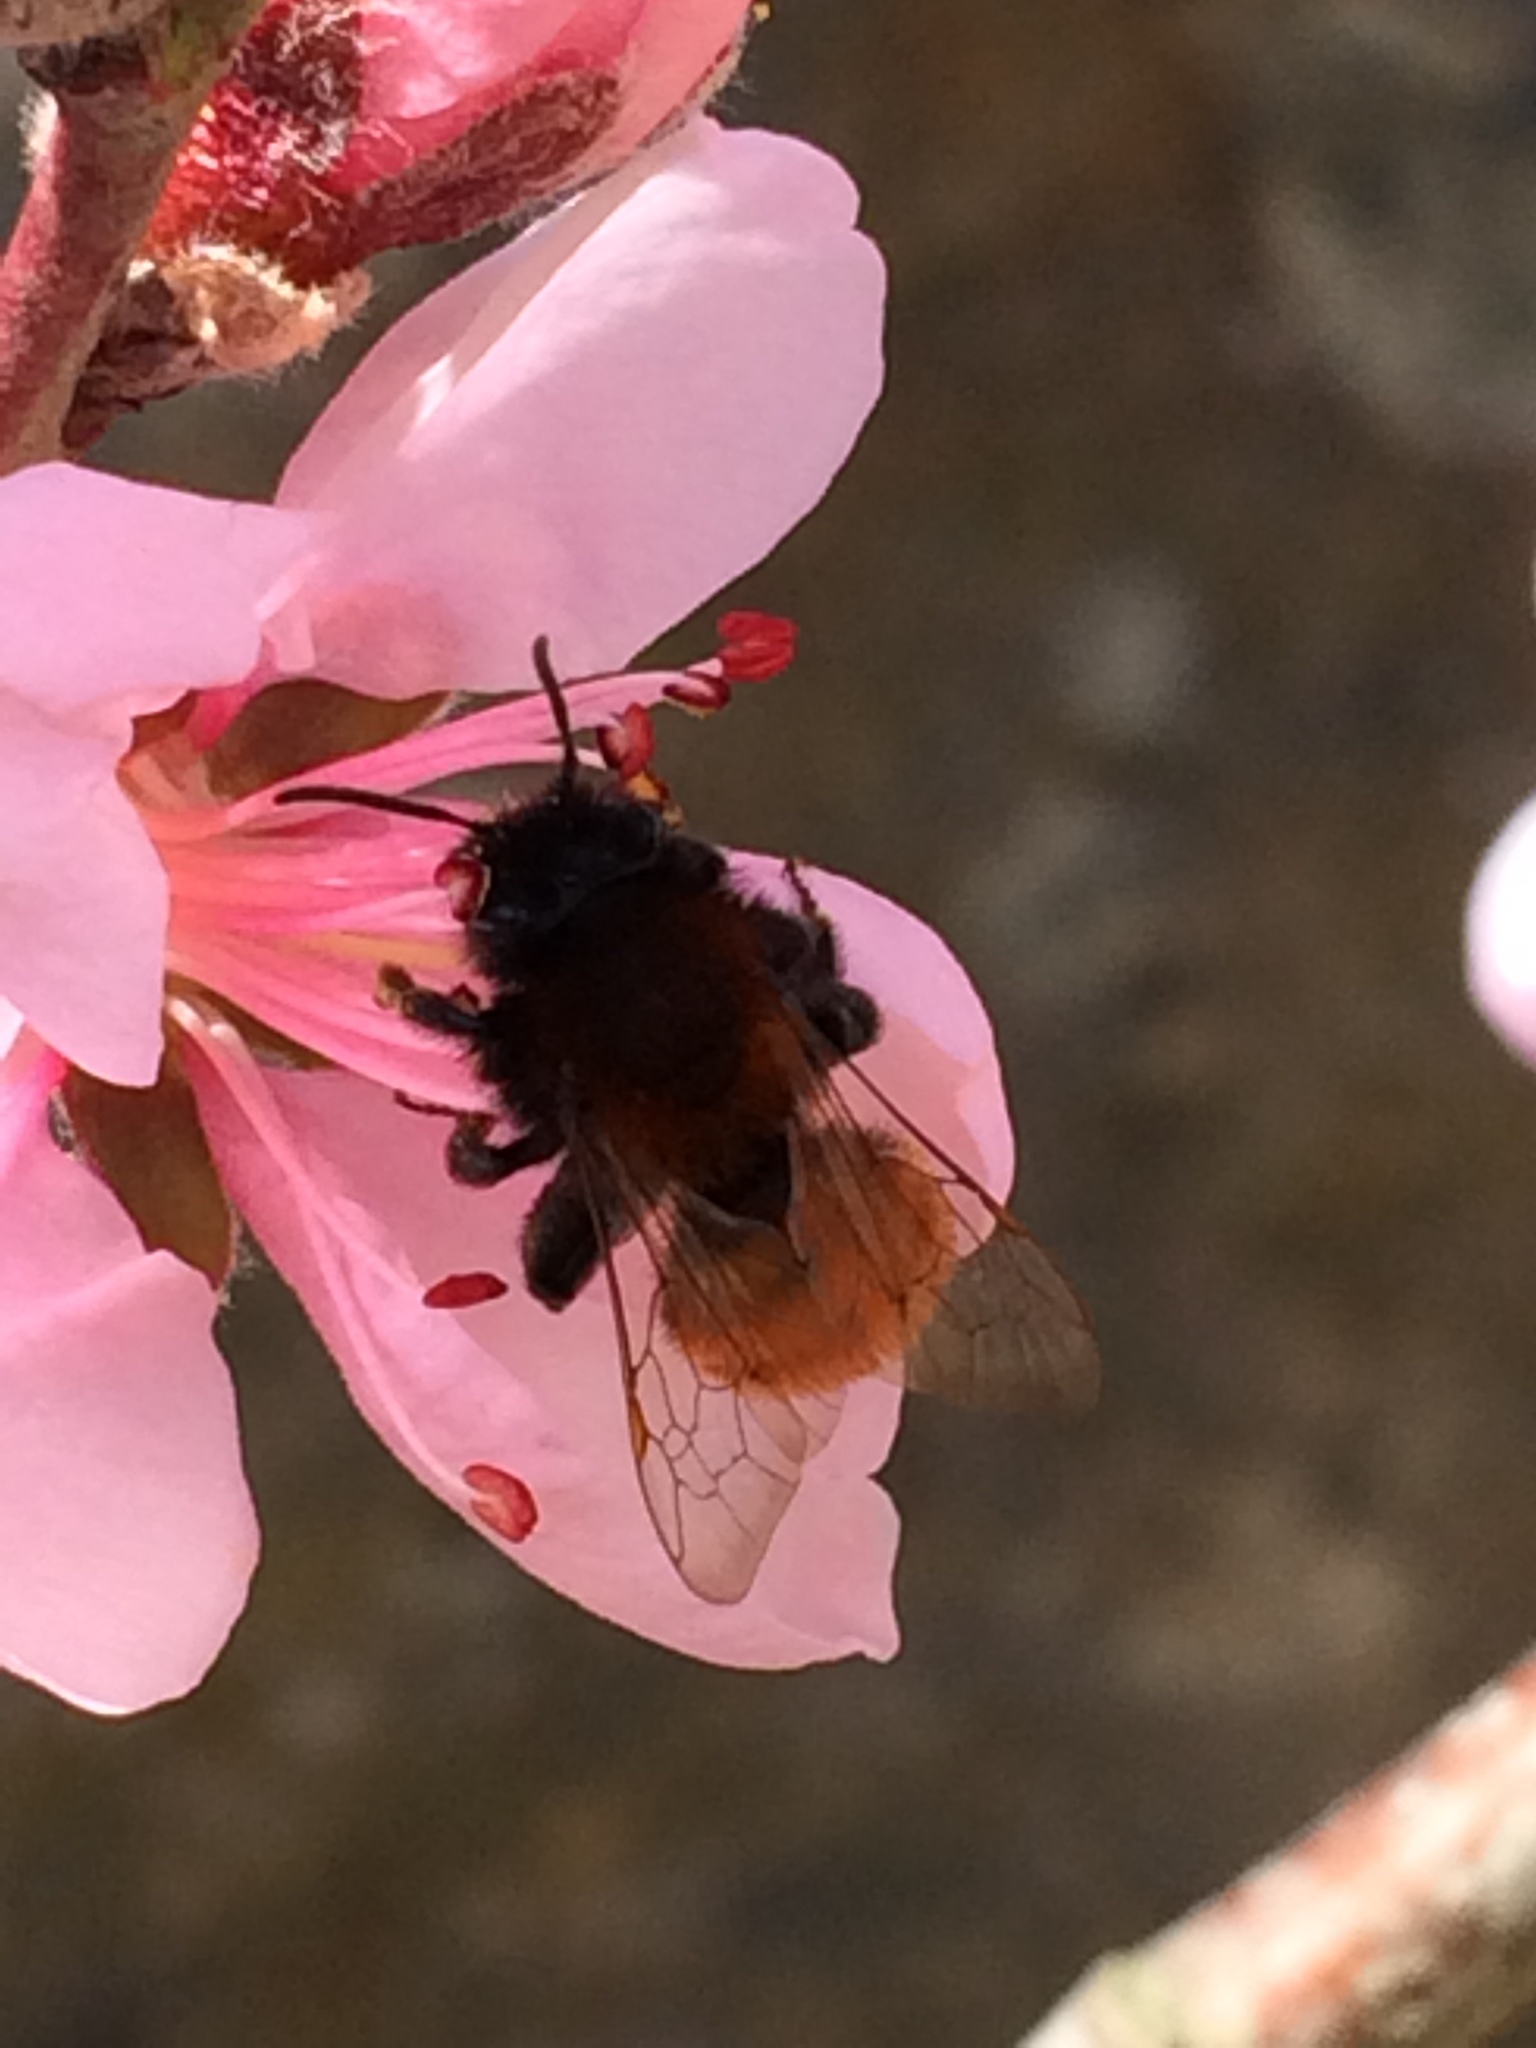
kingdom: Animalia
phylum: Arthropoda
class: Insecta
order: Hymenoptera
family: Andrenidae
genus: Andrena
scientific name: Andrena fulva
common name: Tawny mining bee
